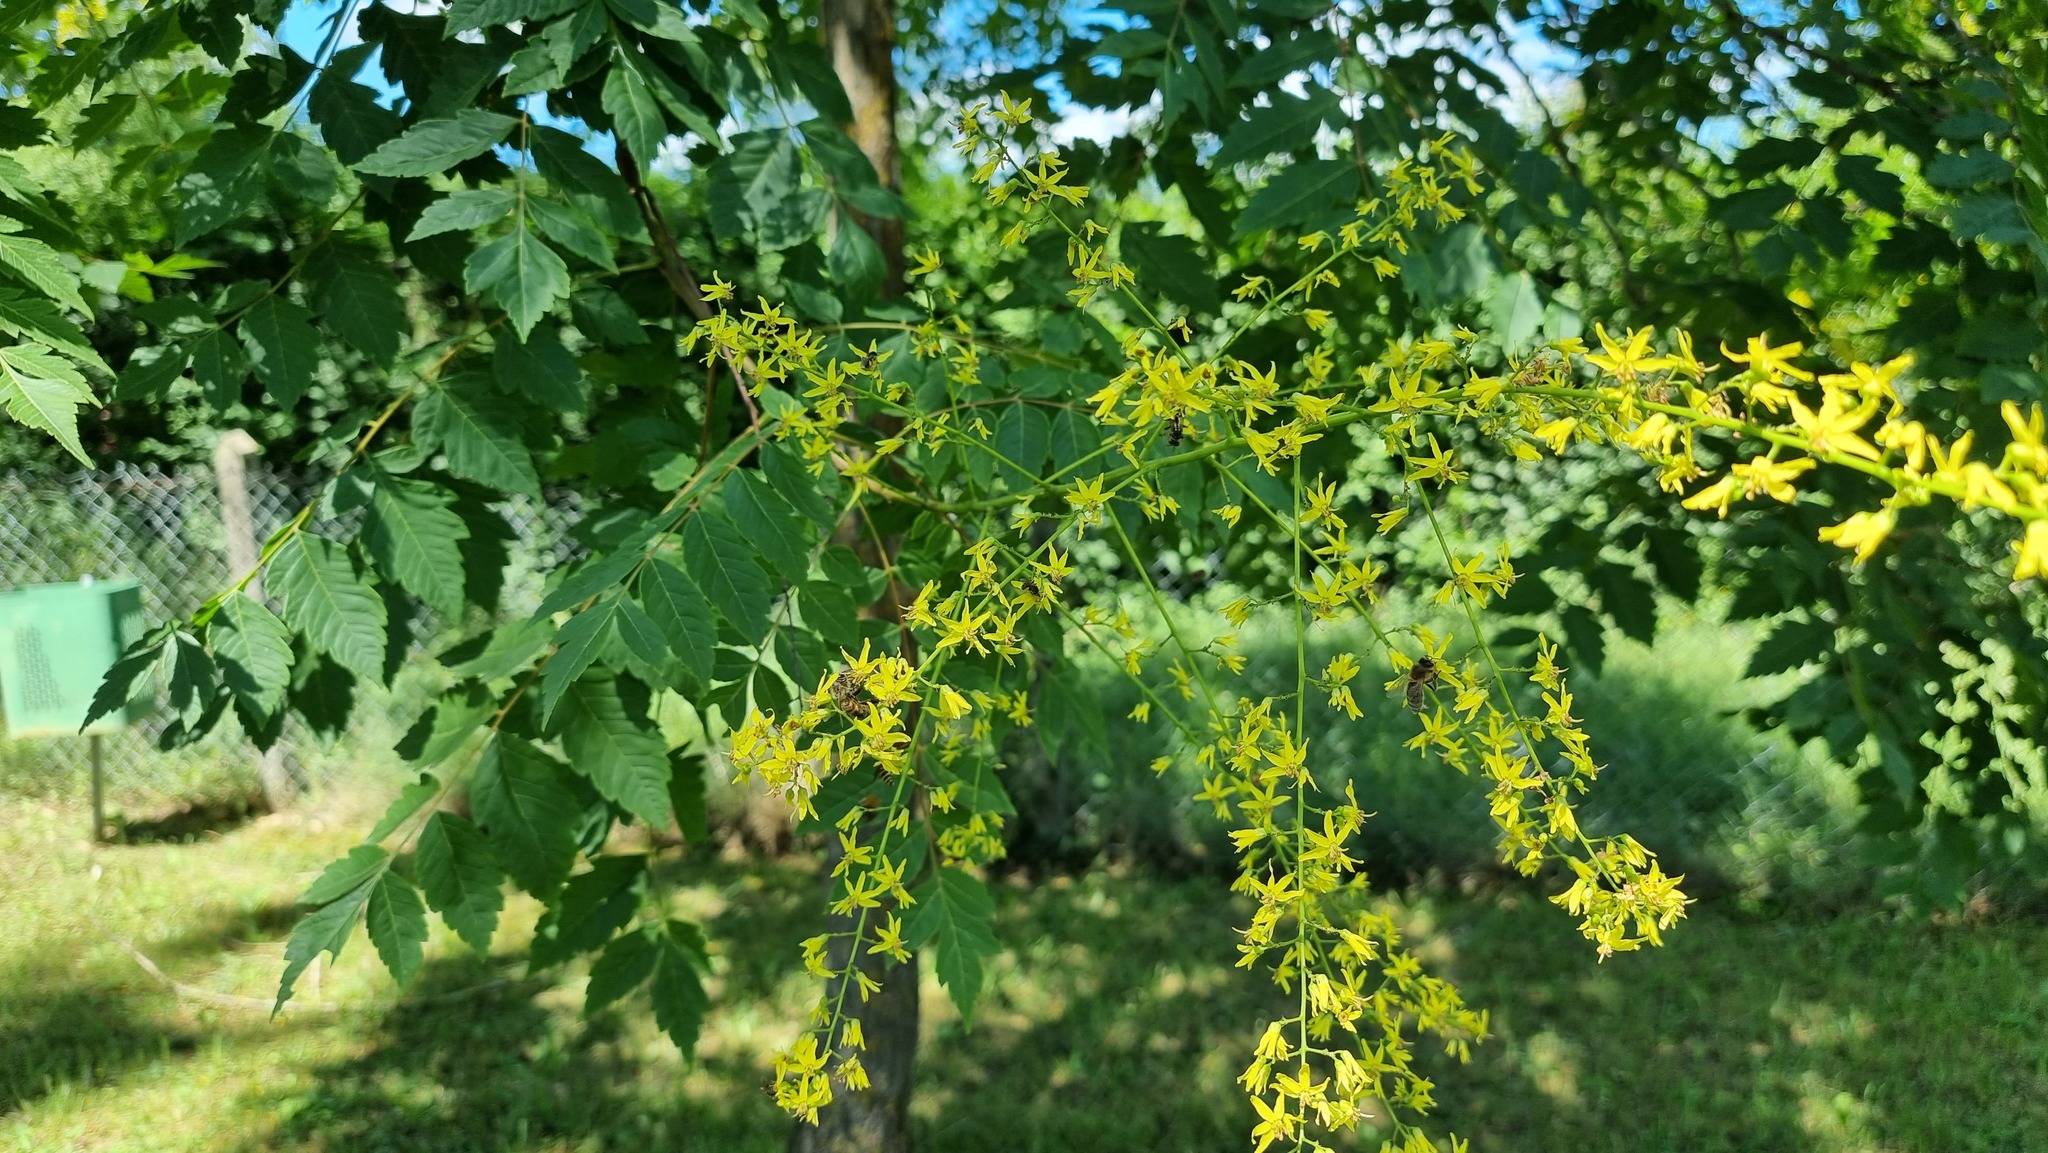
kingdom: Plantae
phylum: Tracheophyta
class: Magnoliopsida
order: Sapindales
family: Sapindaceae
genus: Koelreuteria
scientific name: Koelreuteria paniculata
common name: Pride-of-india
